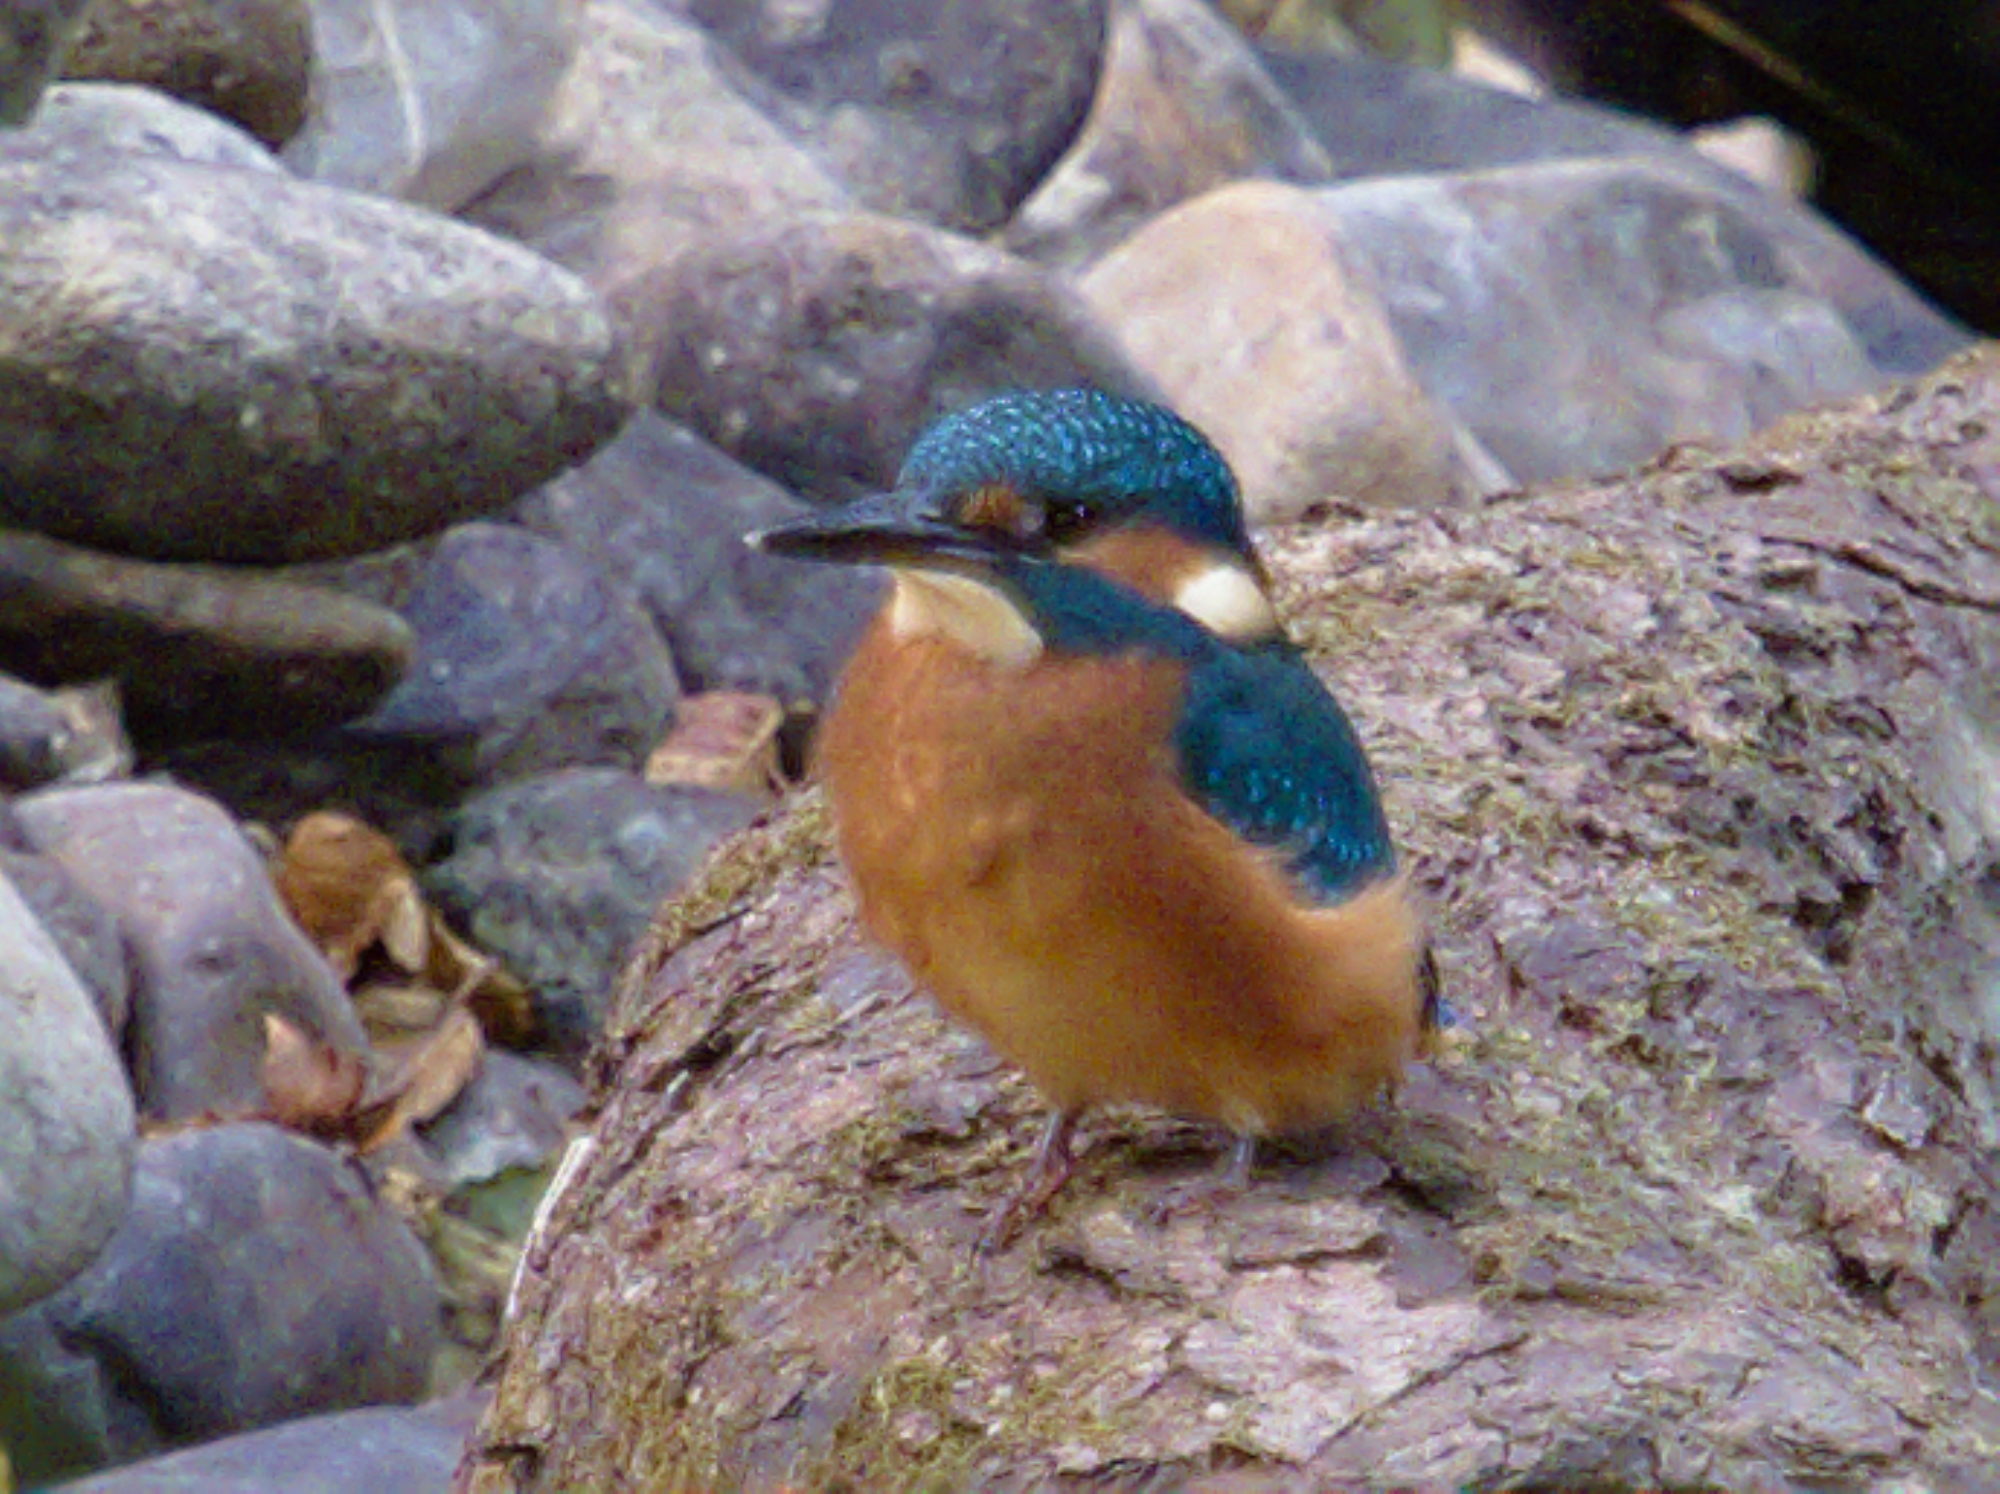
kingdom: Animalia
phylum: Chordata
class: Aves
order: Coraciiformes
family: Alcedinidae
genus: Alcedo
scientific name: Alcedo atthis
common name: Common kingfisher
